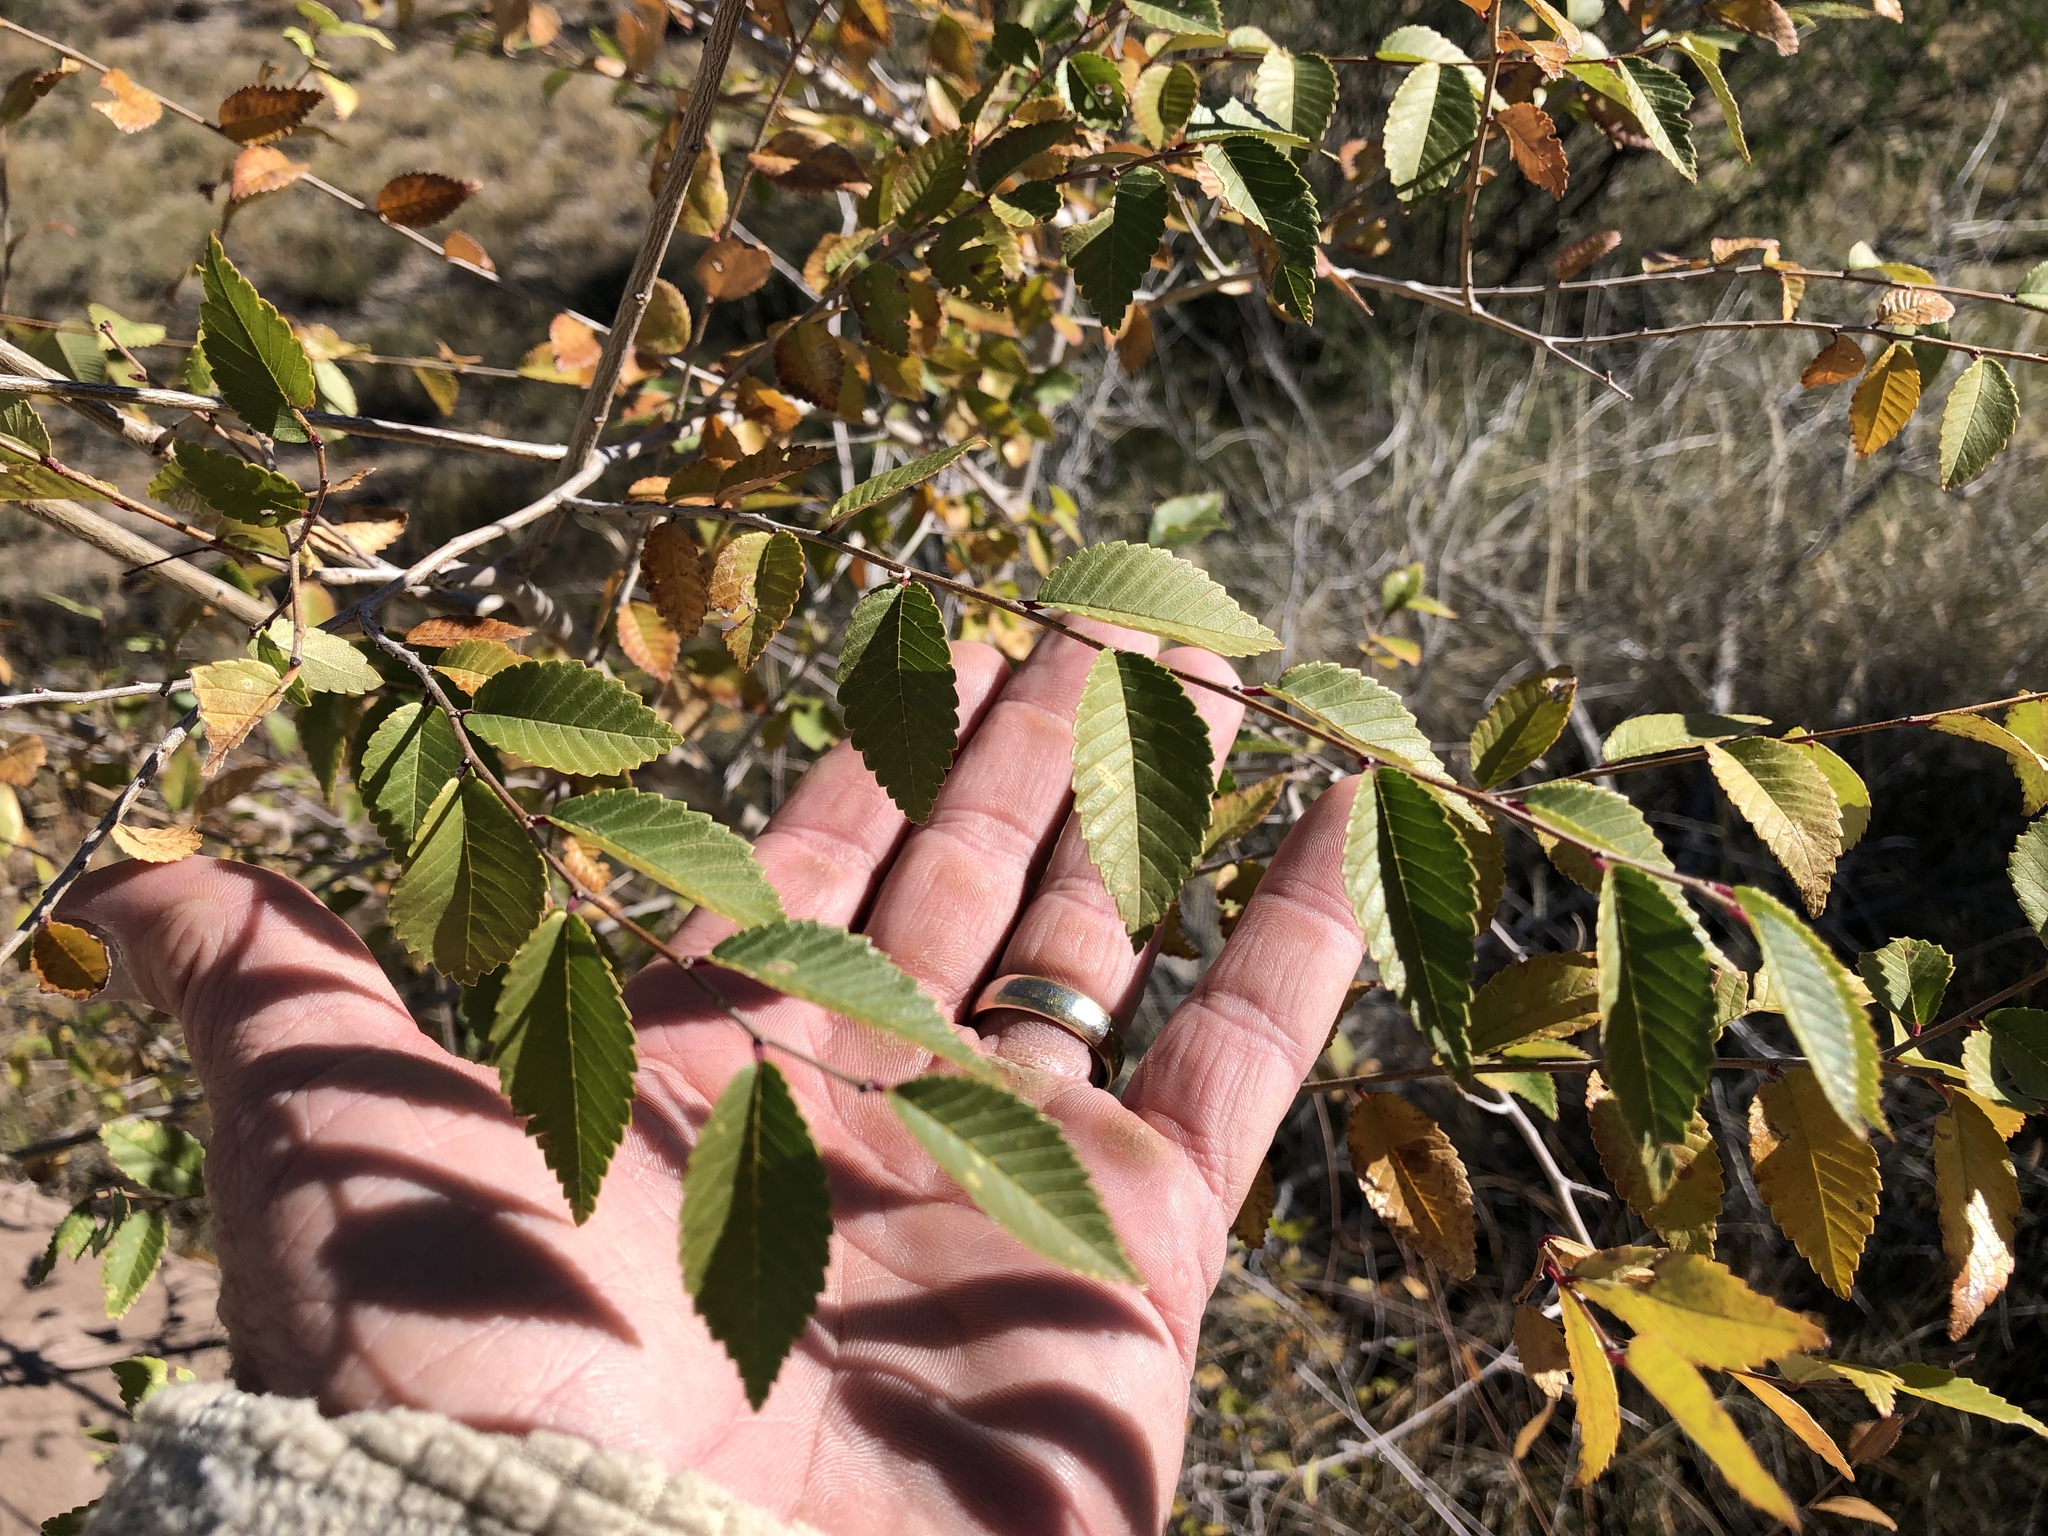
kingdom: Plantae
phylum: Tracheophyta
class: Magnoliopsida
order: Rosales
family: Ulmaceae
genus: Ulmus
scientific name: Ulmus pumila
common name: Siberian elm
